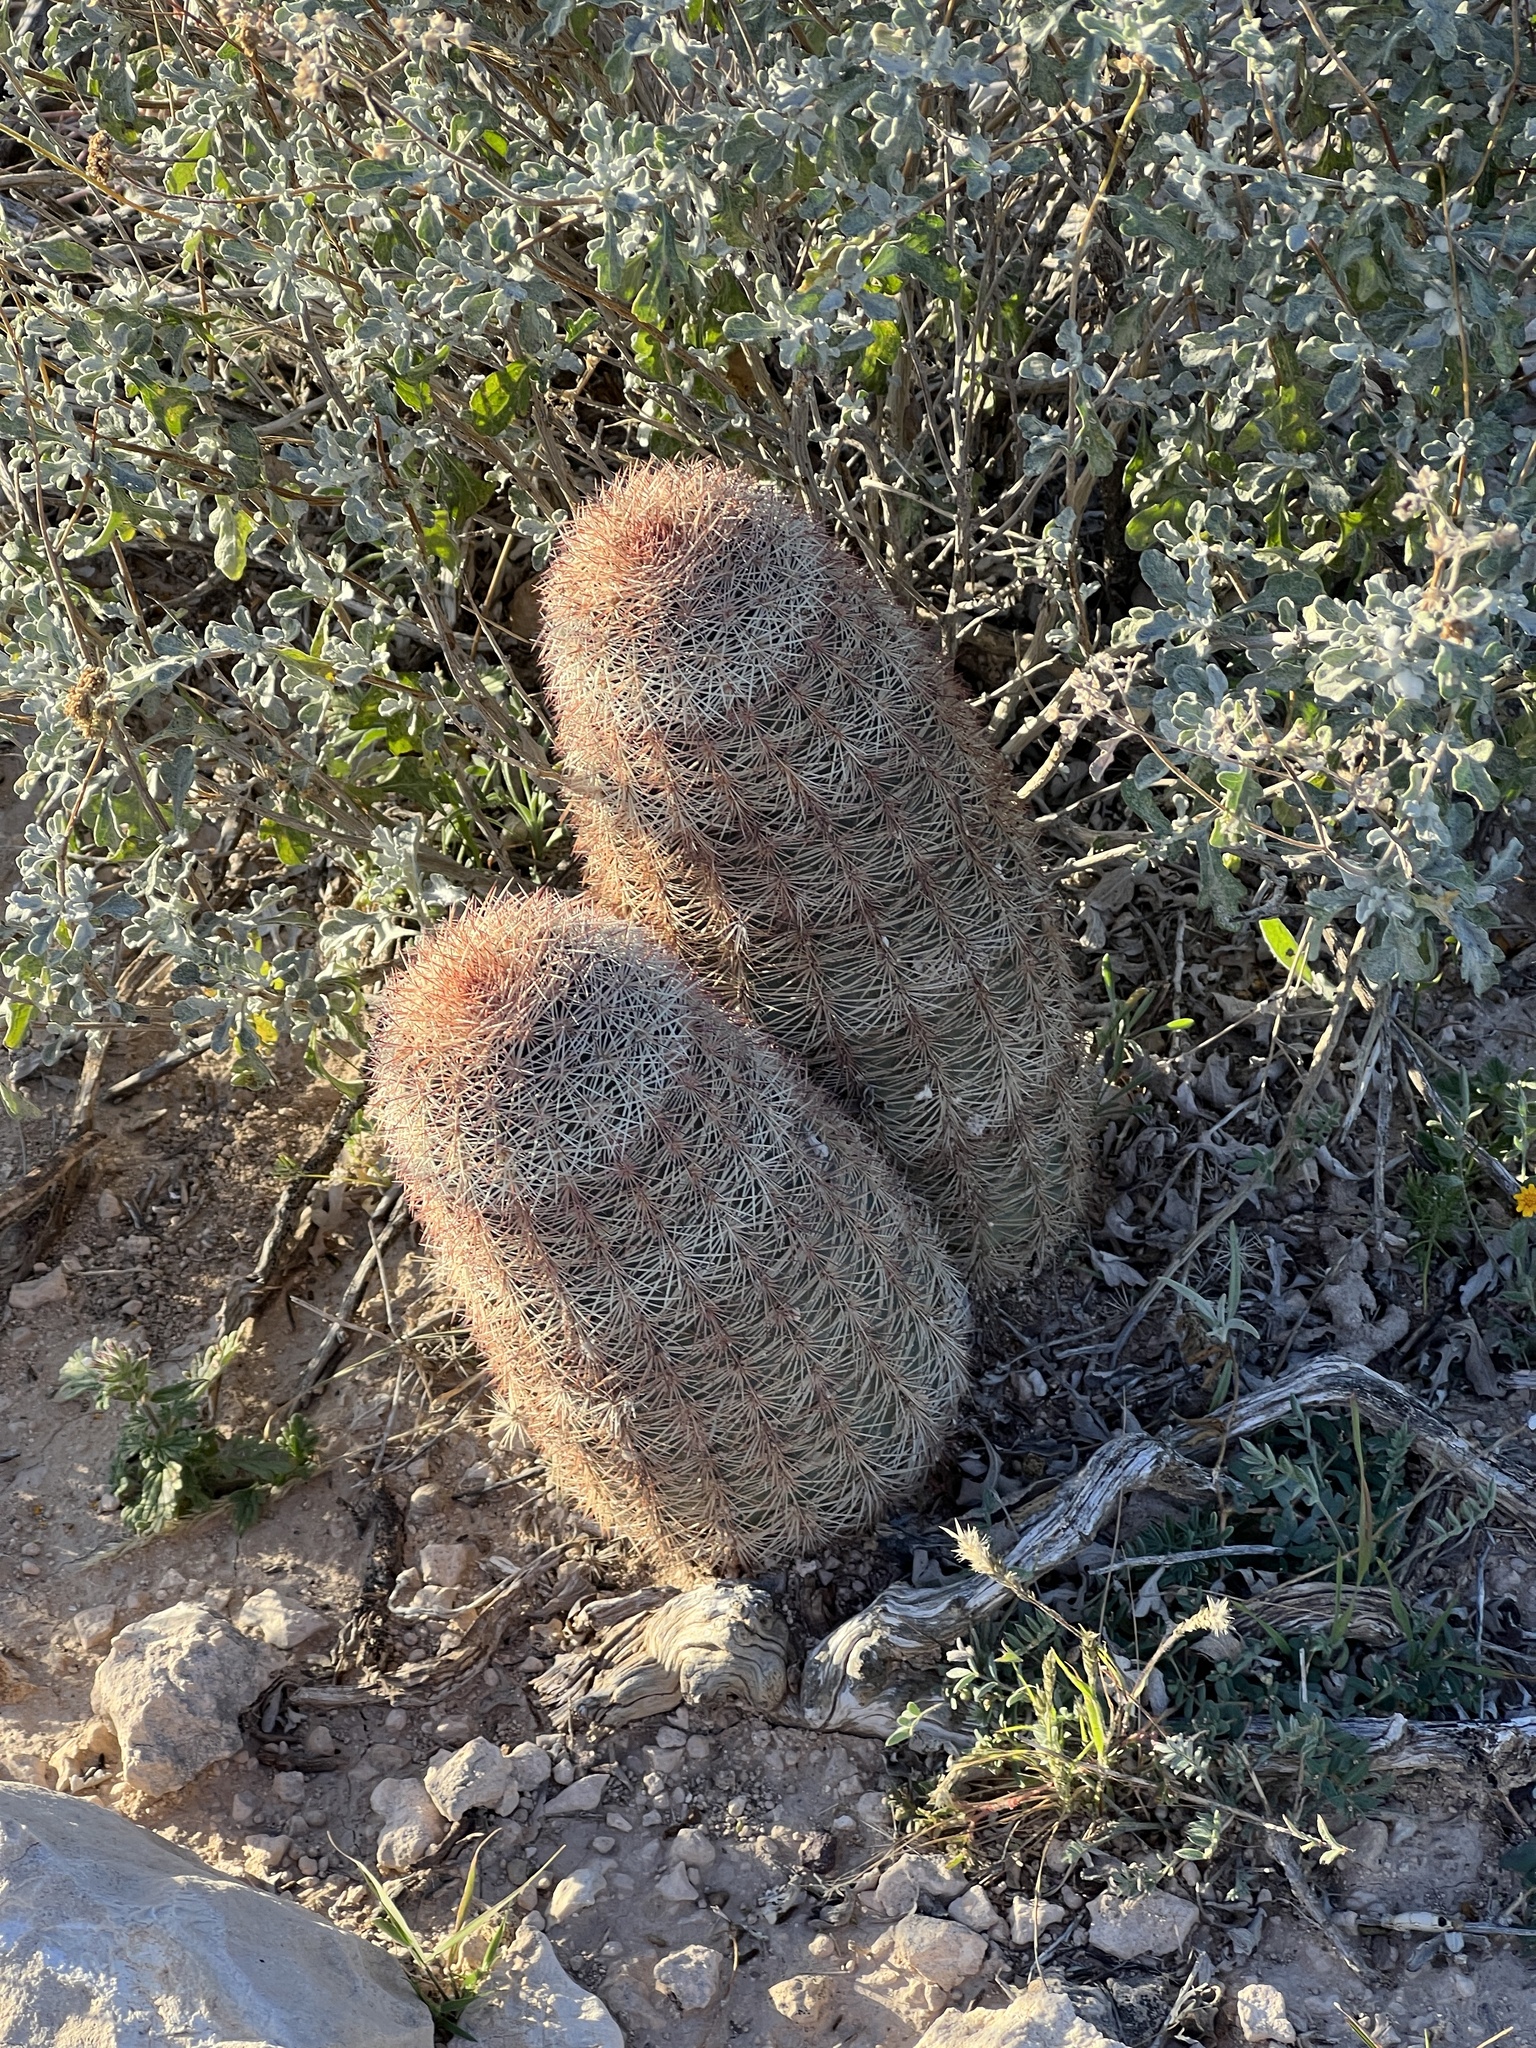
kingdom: Plantae
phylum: Tracheophyta
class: Magnoliopsida
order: Caryophyllales
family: Cactaceae
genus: Echinocereus
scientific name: Echinocereus dasyacanthus
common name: Spiny hedgehog cactus
